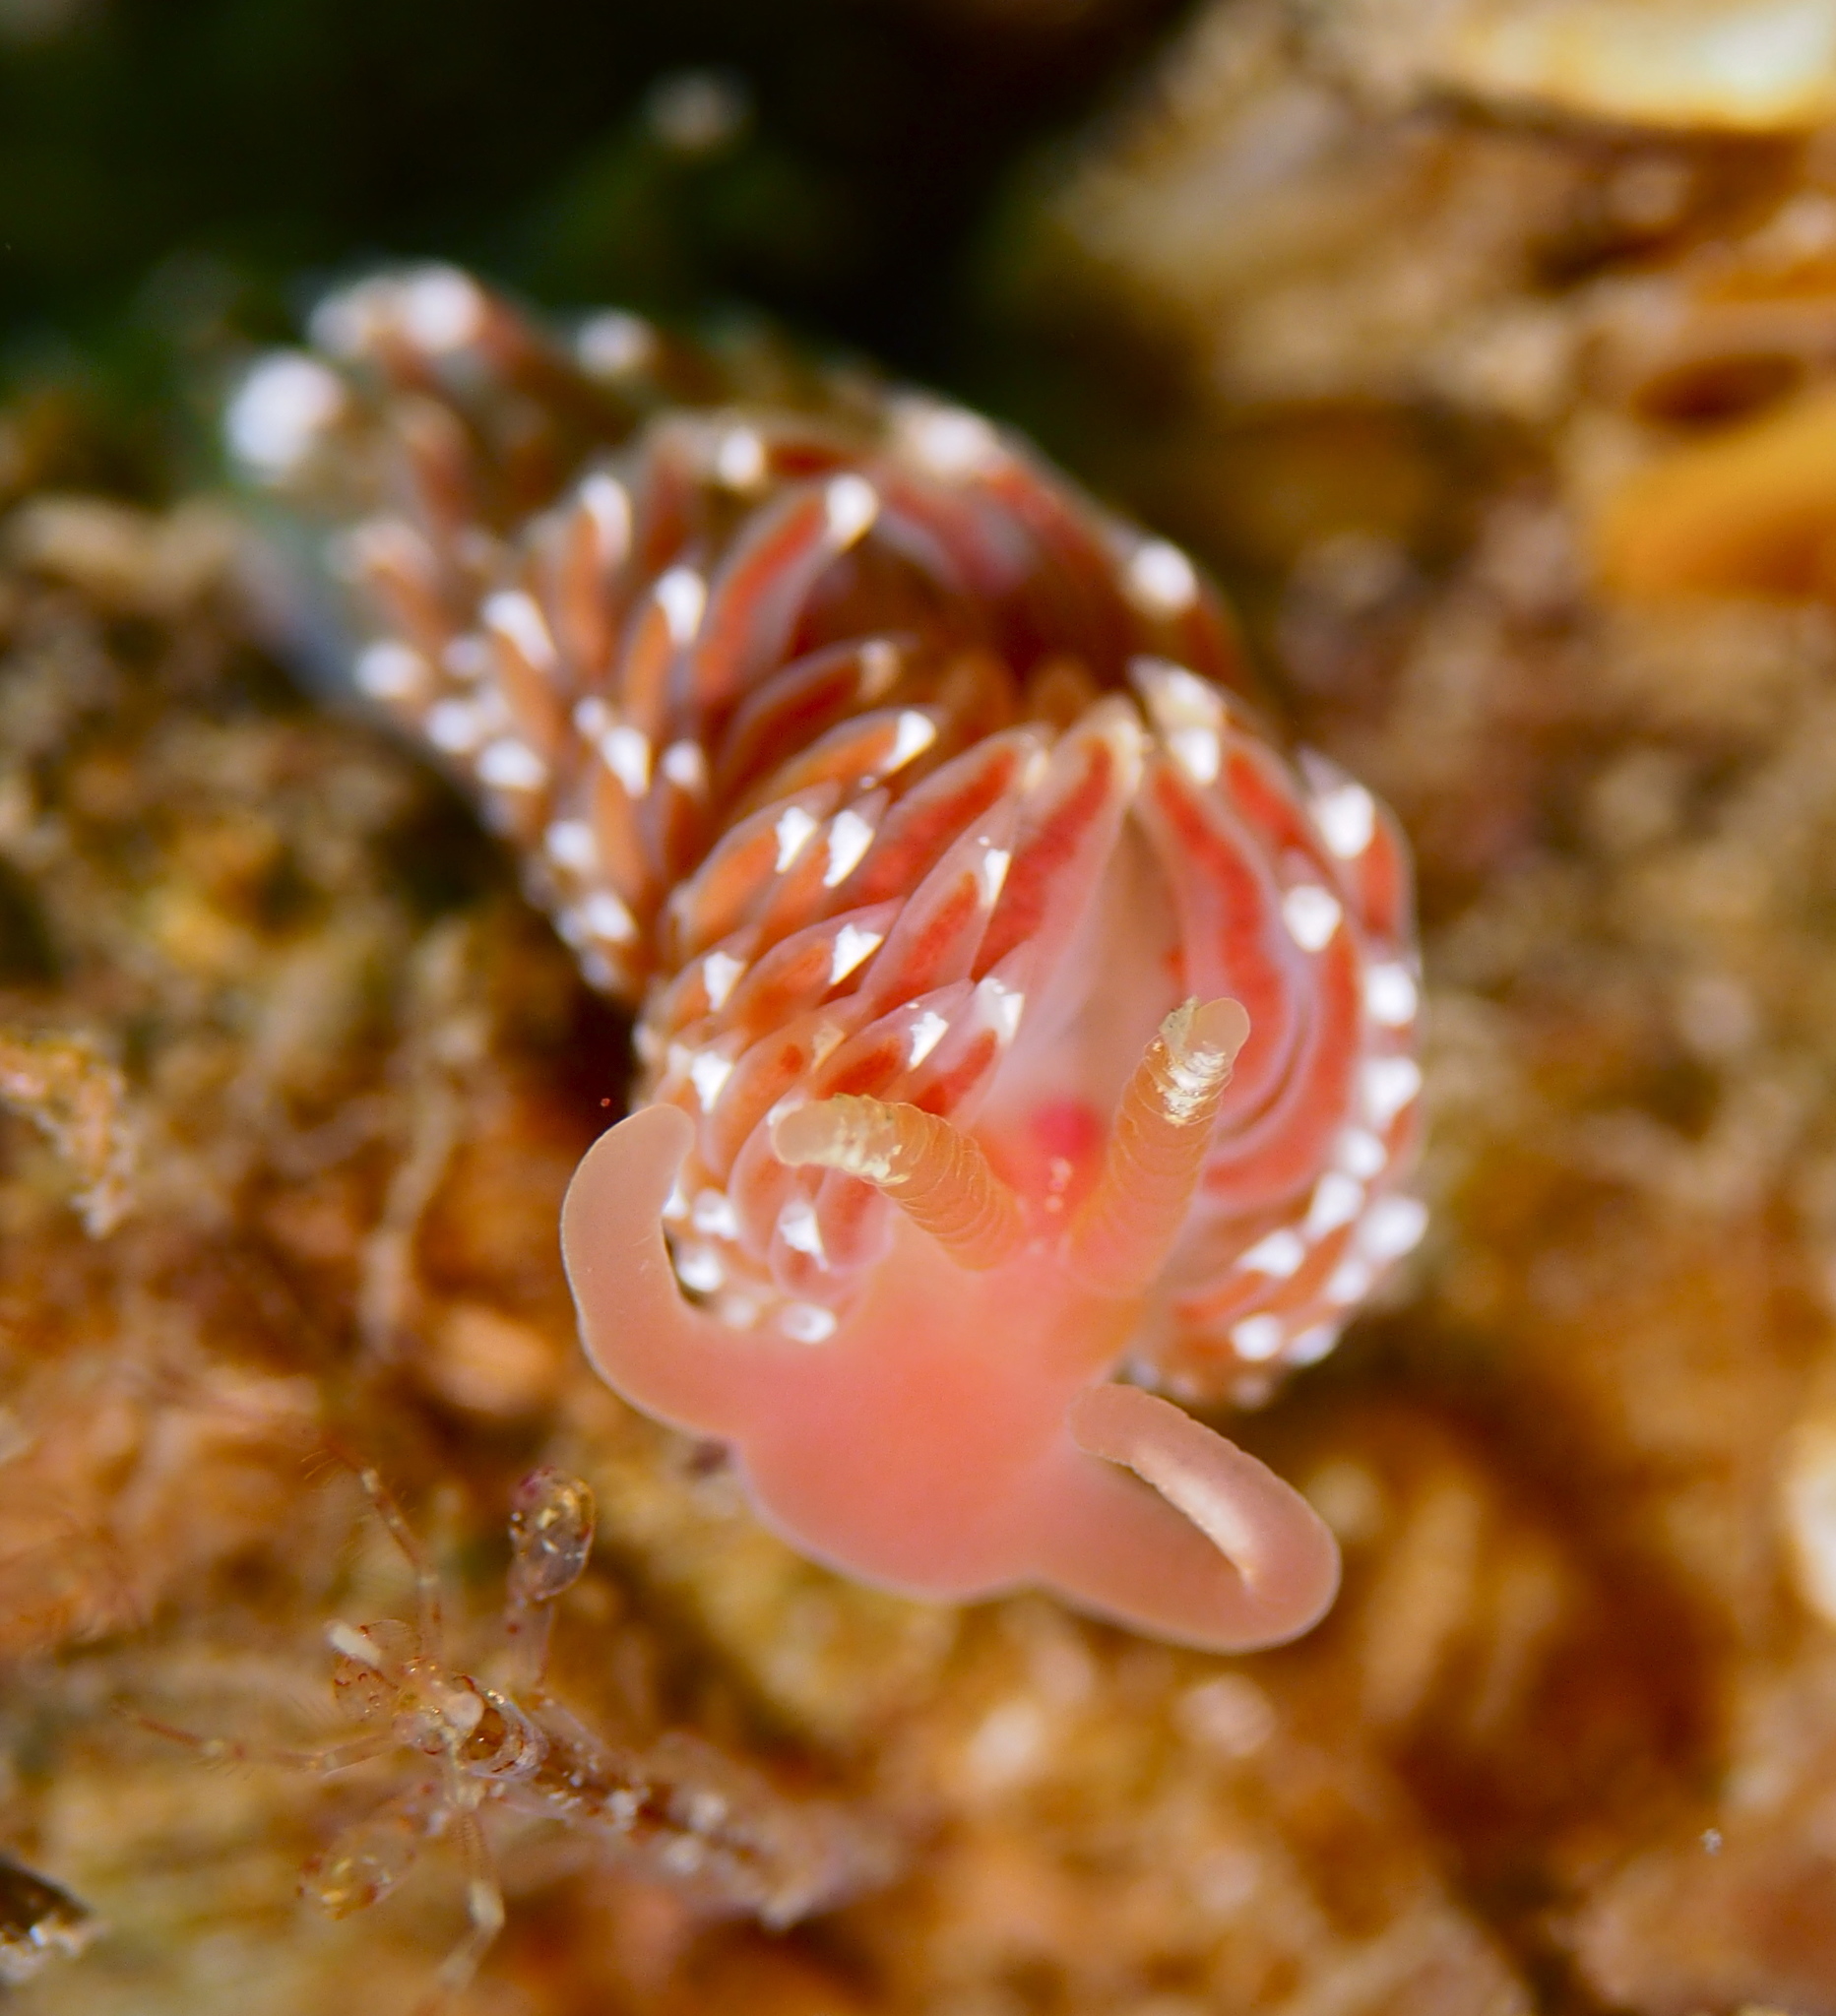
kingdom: Animalia
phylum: Mollusca
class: Gastropoda
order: Nudibranchia
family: Facelinidae
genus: Facelina
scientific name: Facelina bostoniensis
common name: Boston facelina
